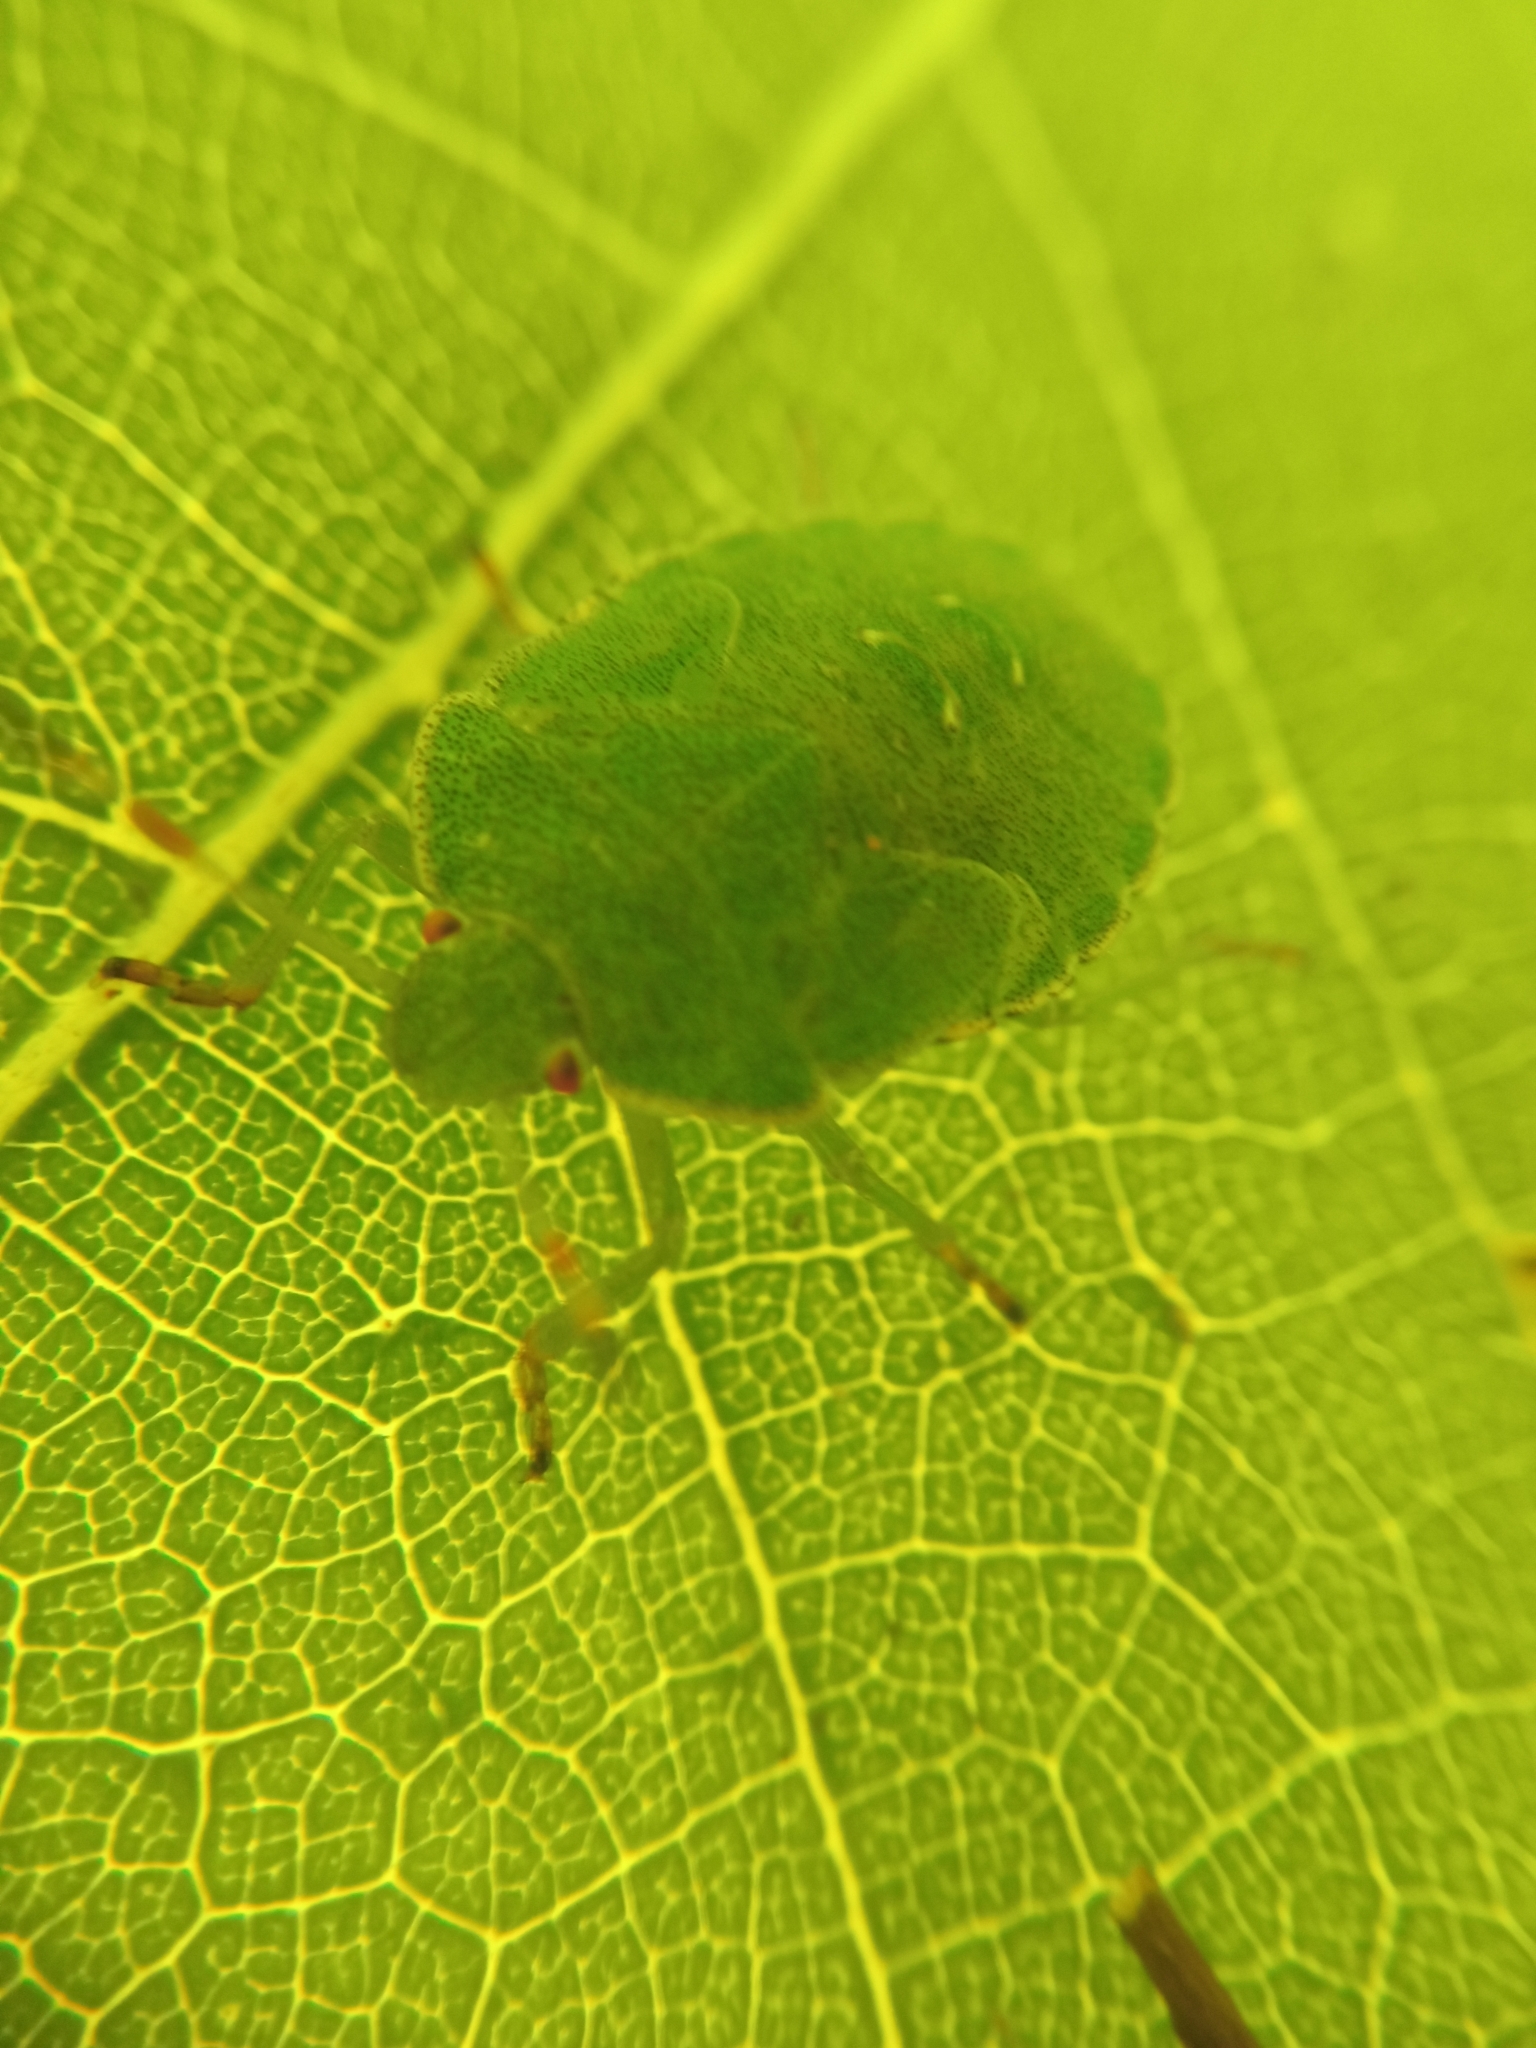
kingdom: Animalia
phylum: Arthropoda
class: Insecta
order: Hemiptera
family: Pentatomidae
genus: Palomena
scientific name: Palomena prasina
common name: Green shieldbug
